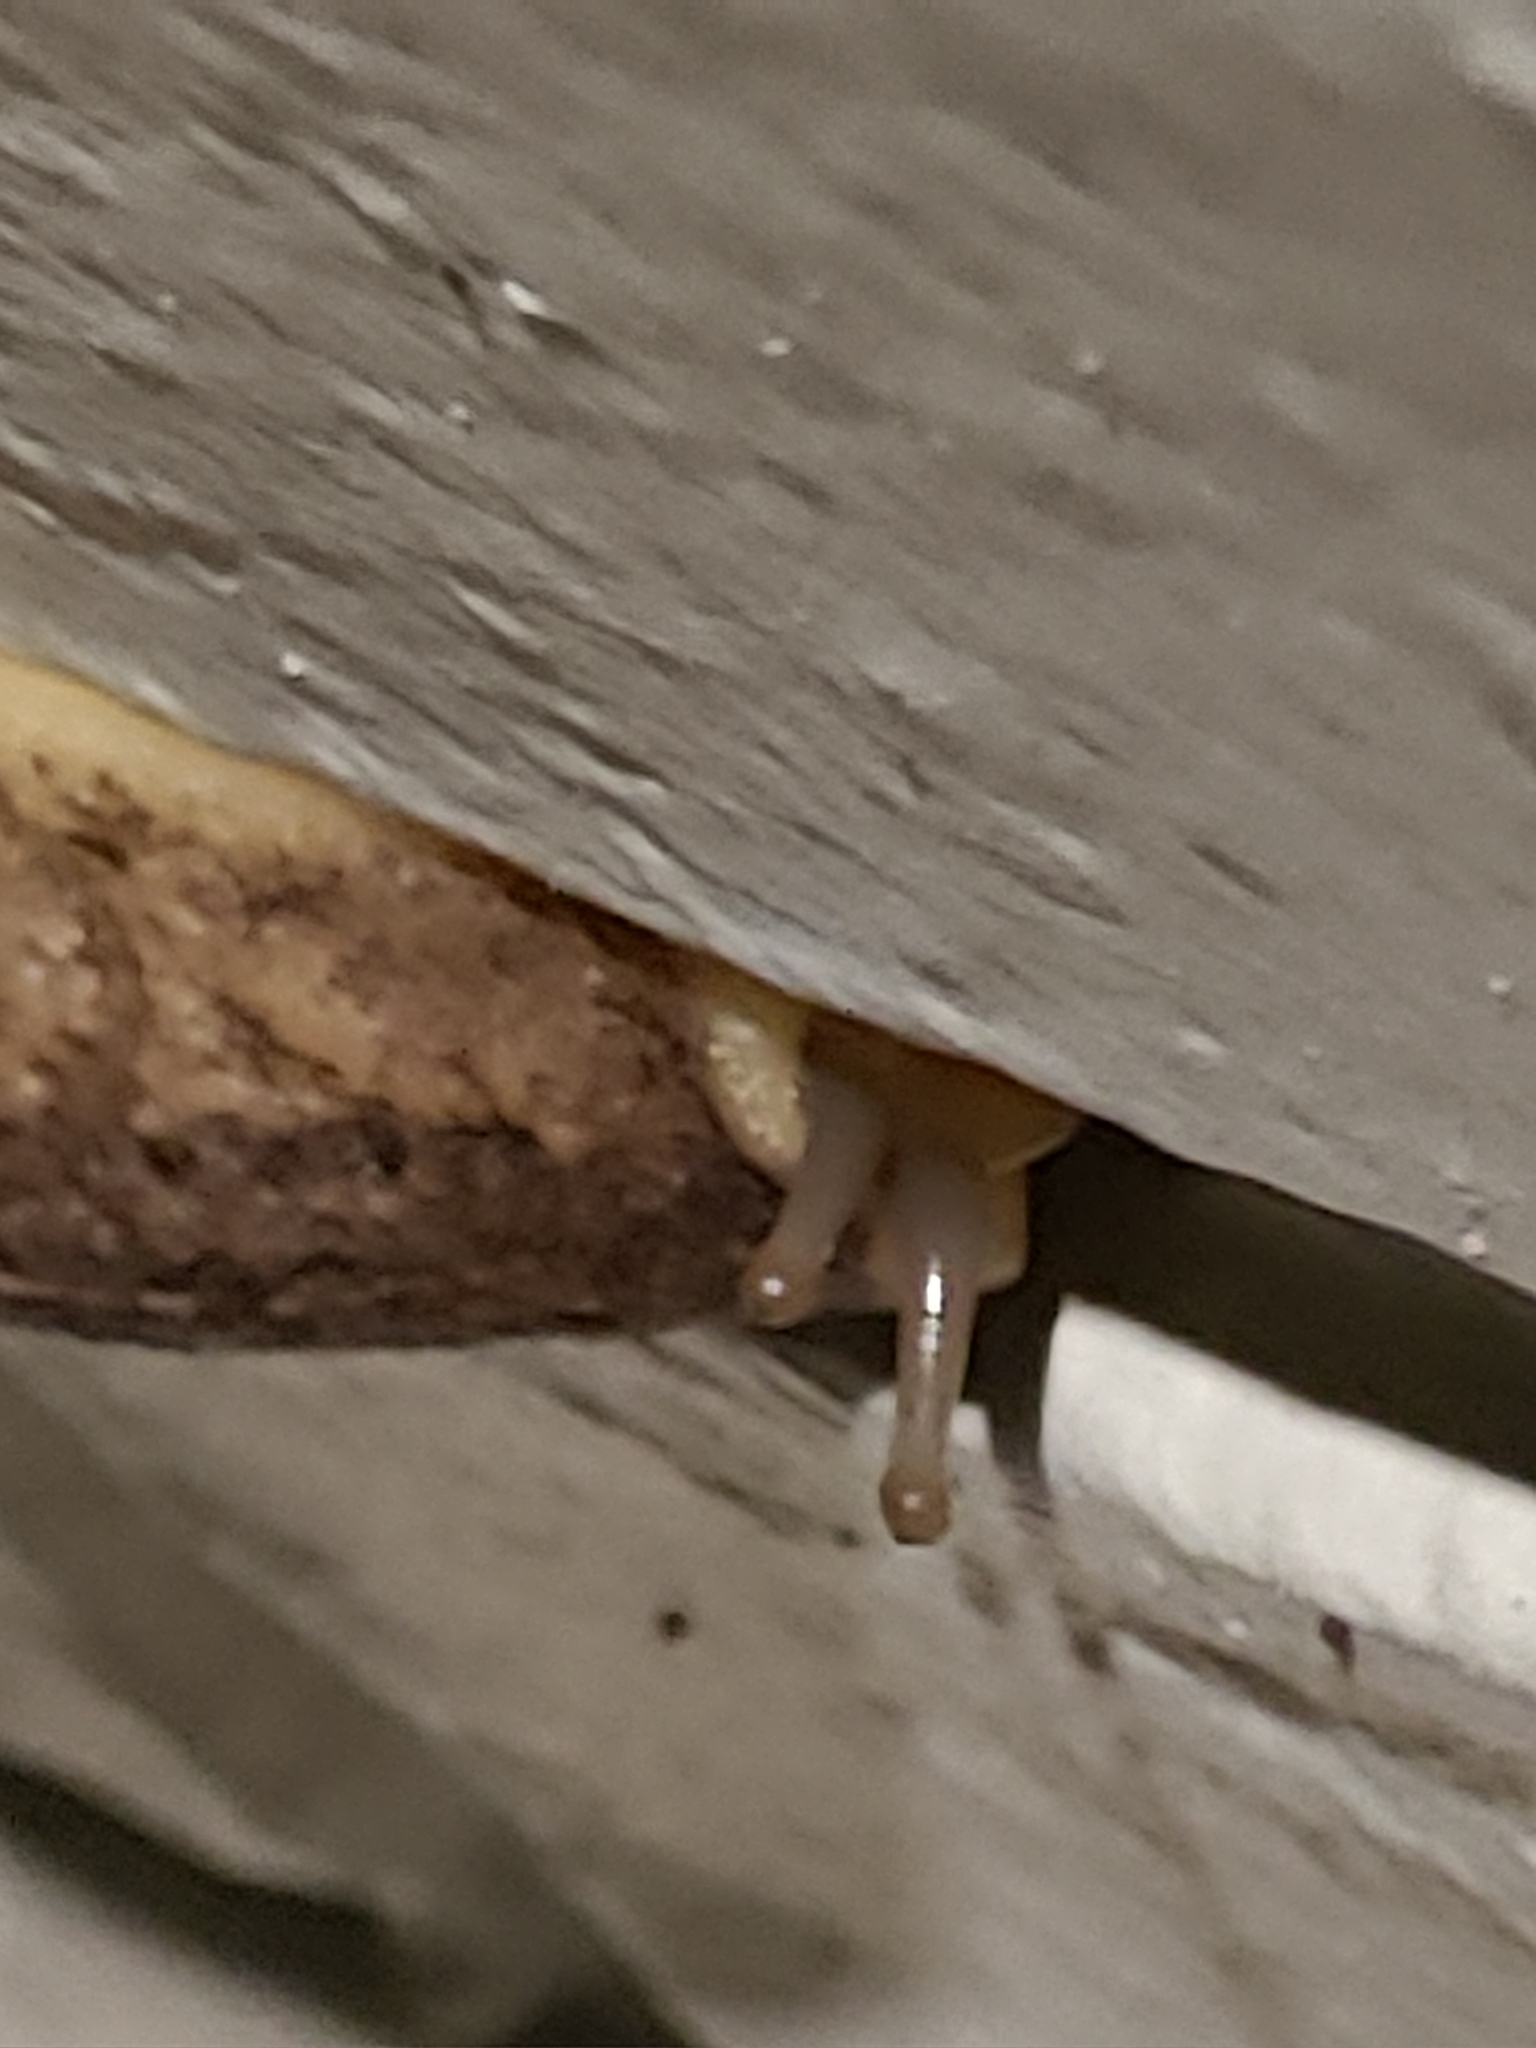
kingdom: Animalia
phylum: Mollusca
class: Gastropoda
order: Systellommatophora
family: Veronicellidae
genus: Leidyula
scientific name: Leidyula floridana
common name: Florida leatherleaf
